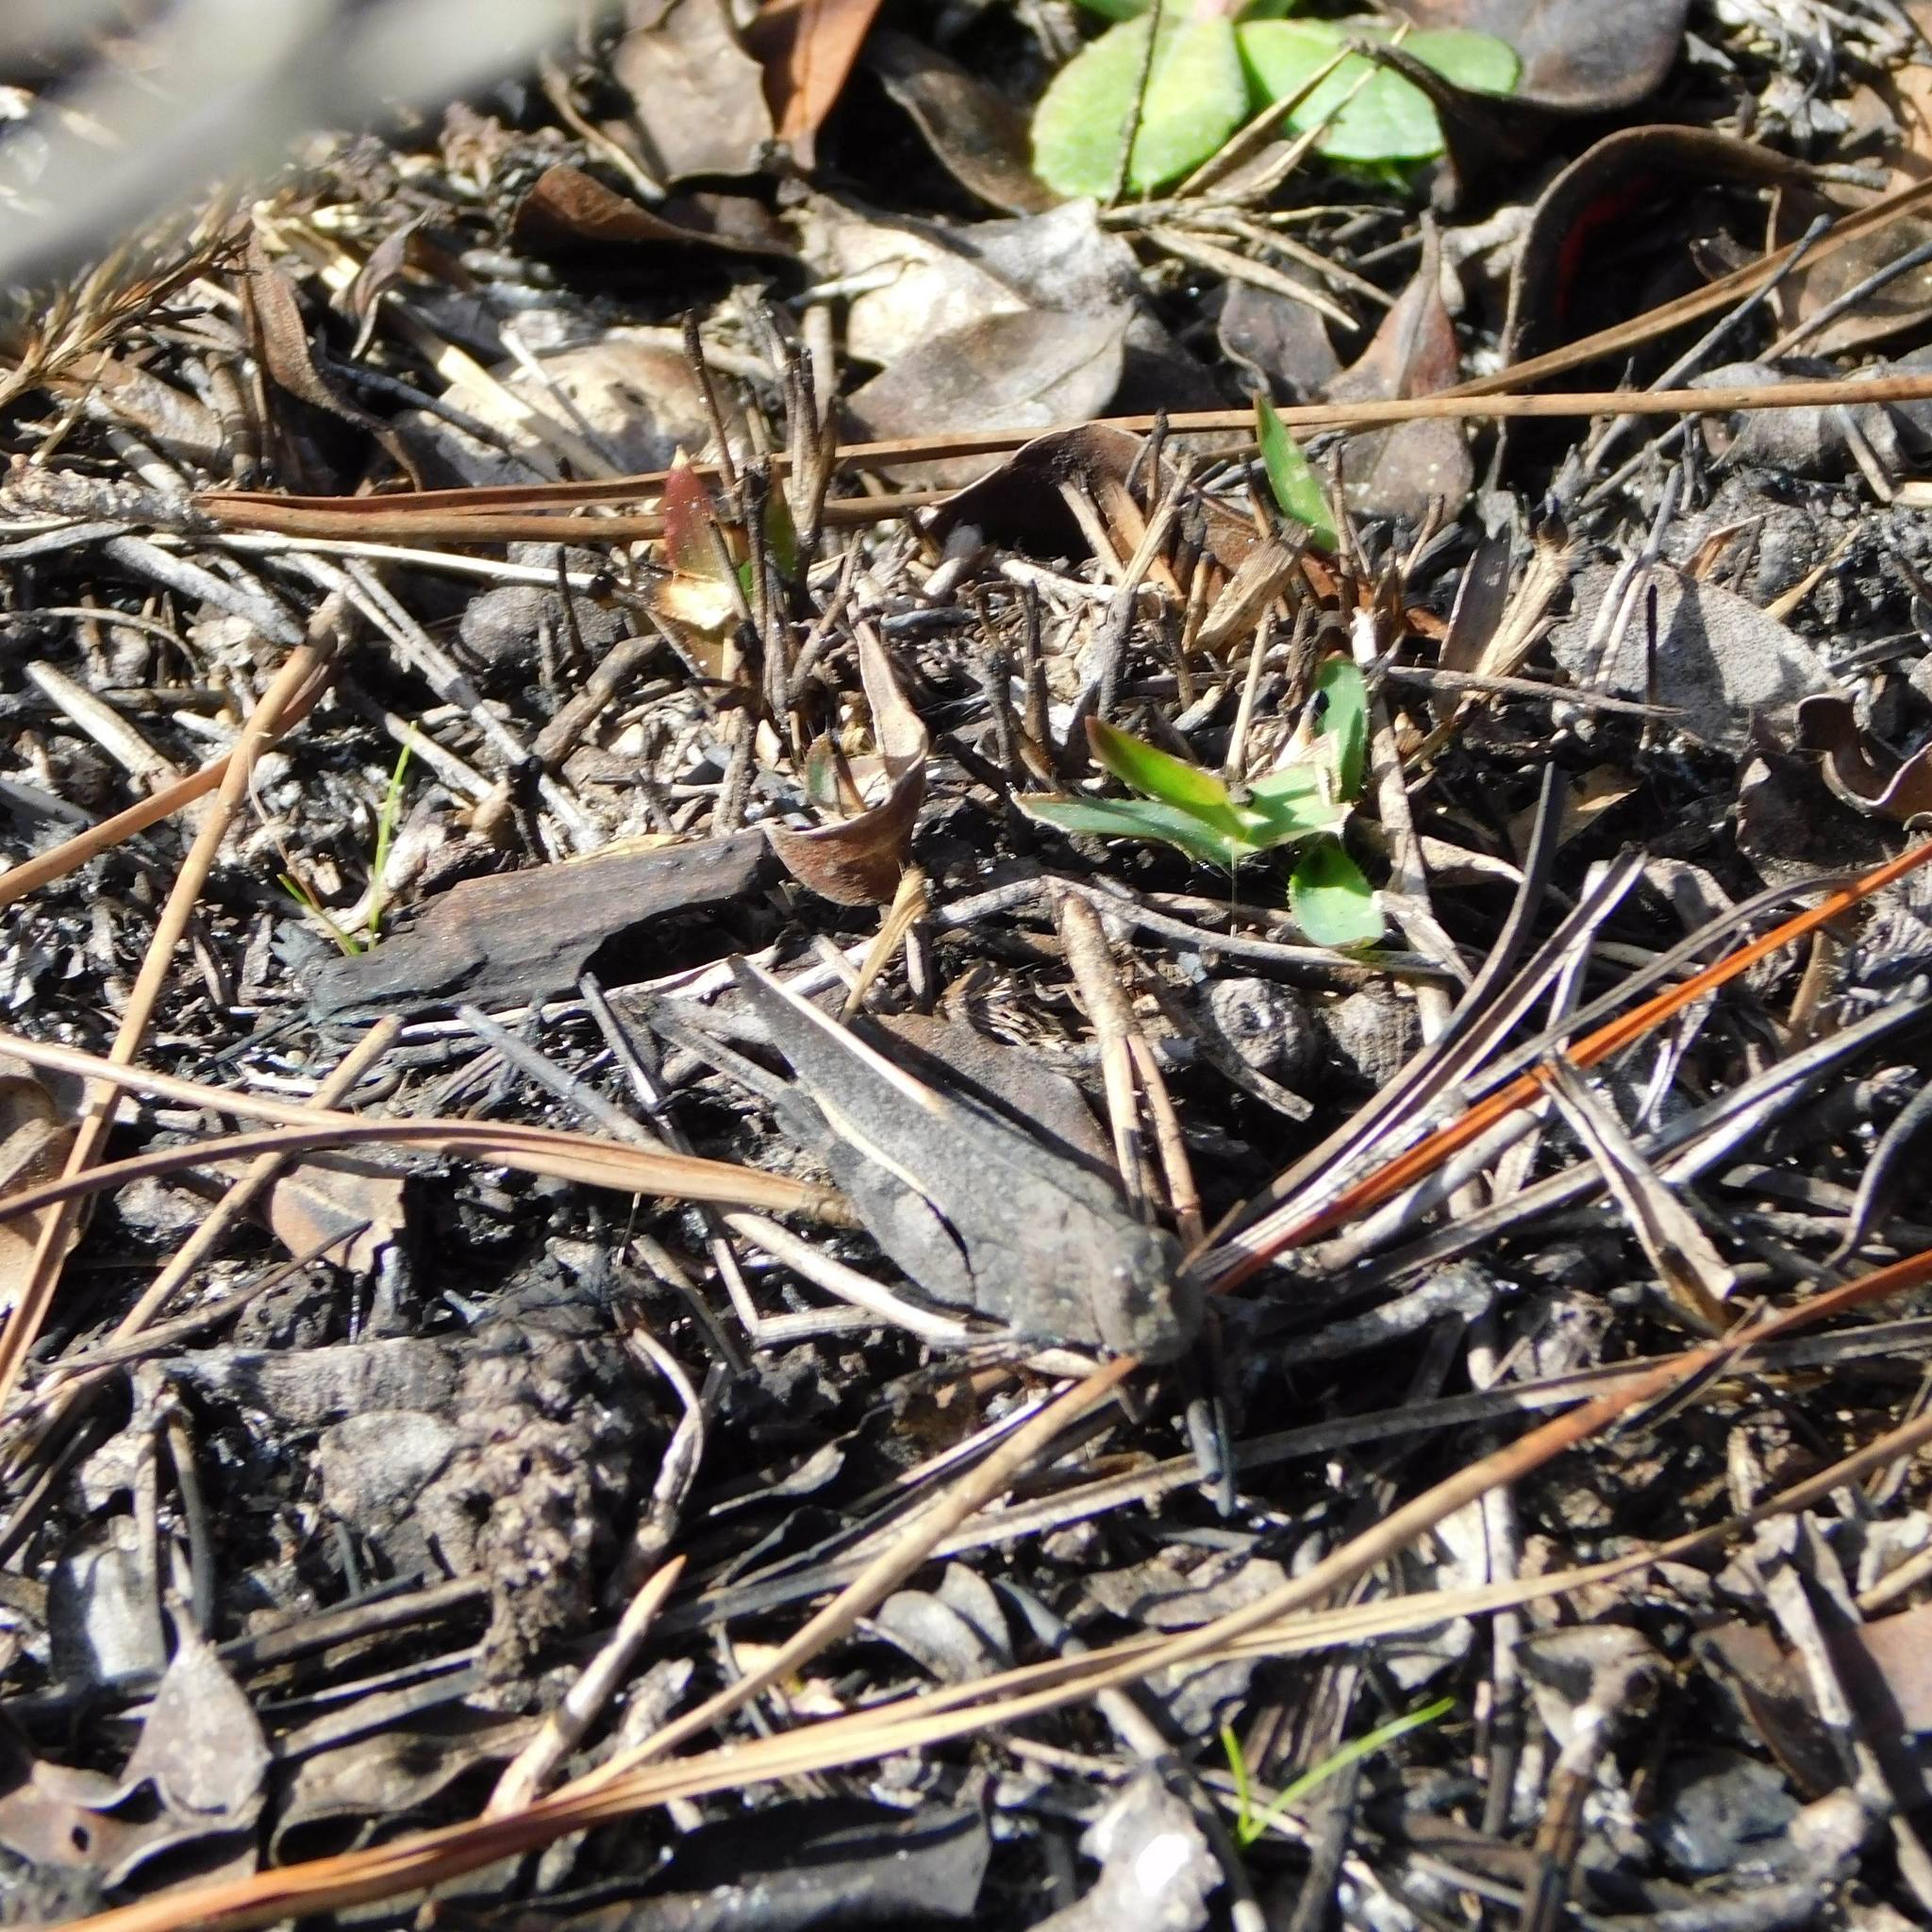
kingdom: Animalia
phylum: Arthropoda
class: Insecta
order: Orthoptera
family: Acrididae
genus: Arphia
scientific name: Arphia granulata
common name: Southern yellow-winged grasshopper
